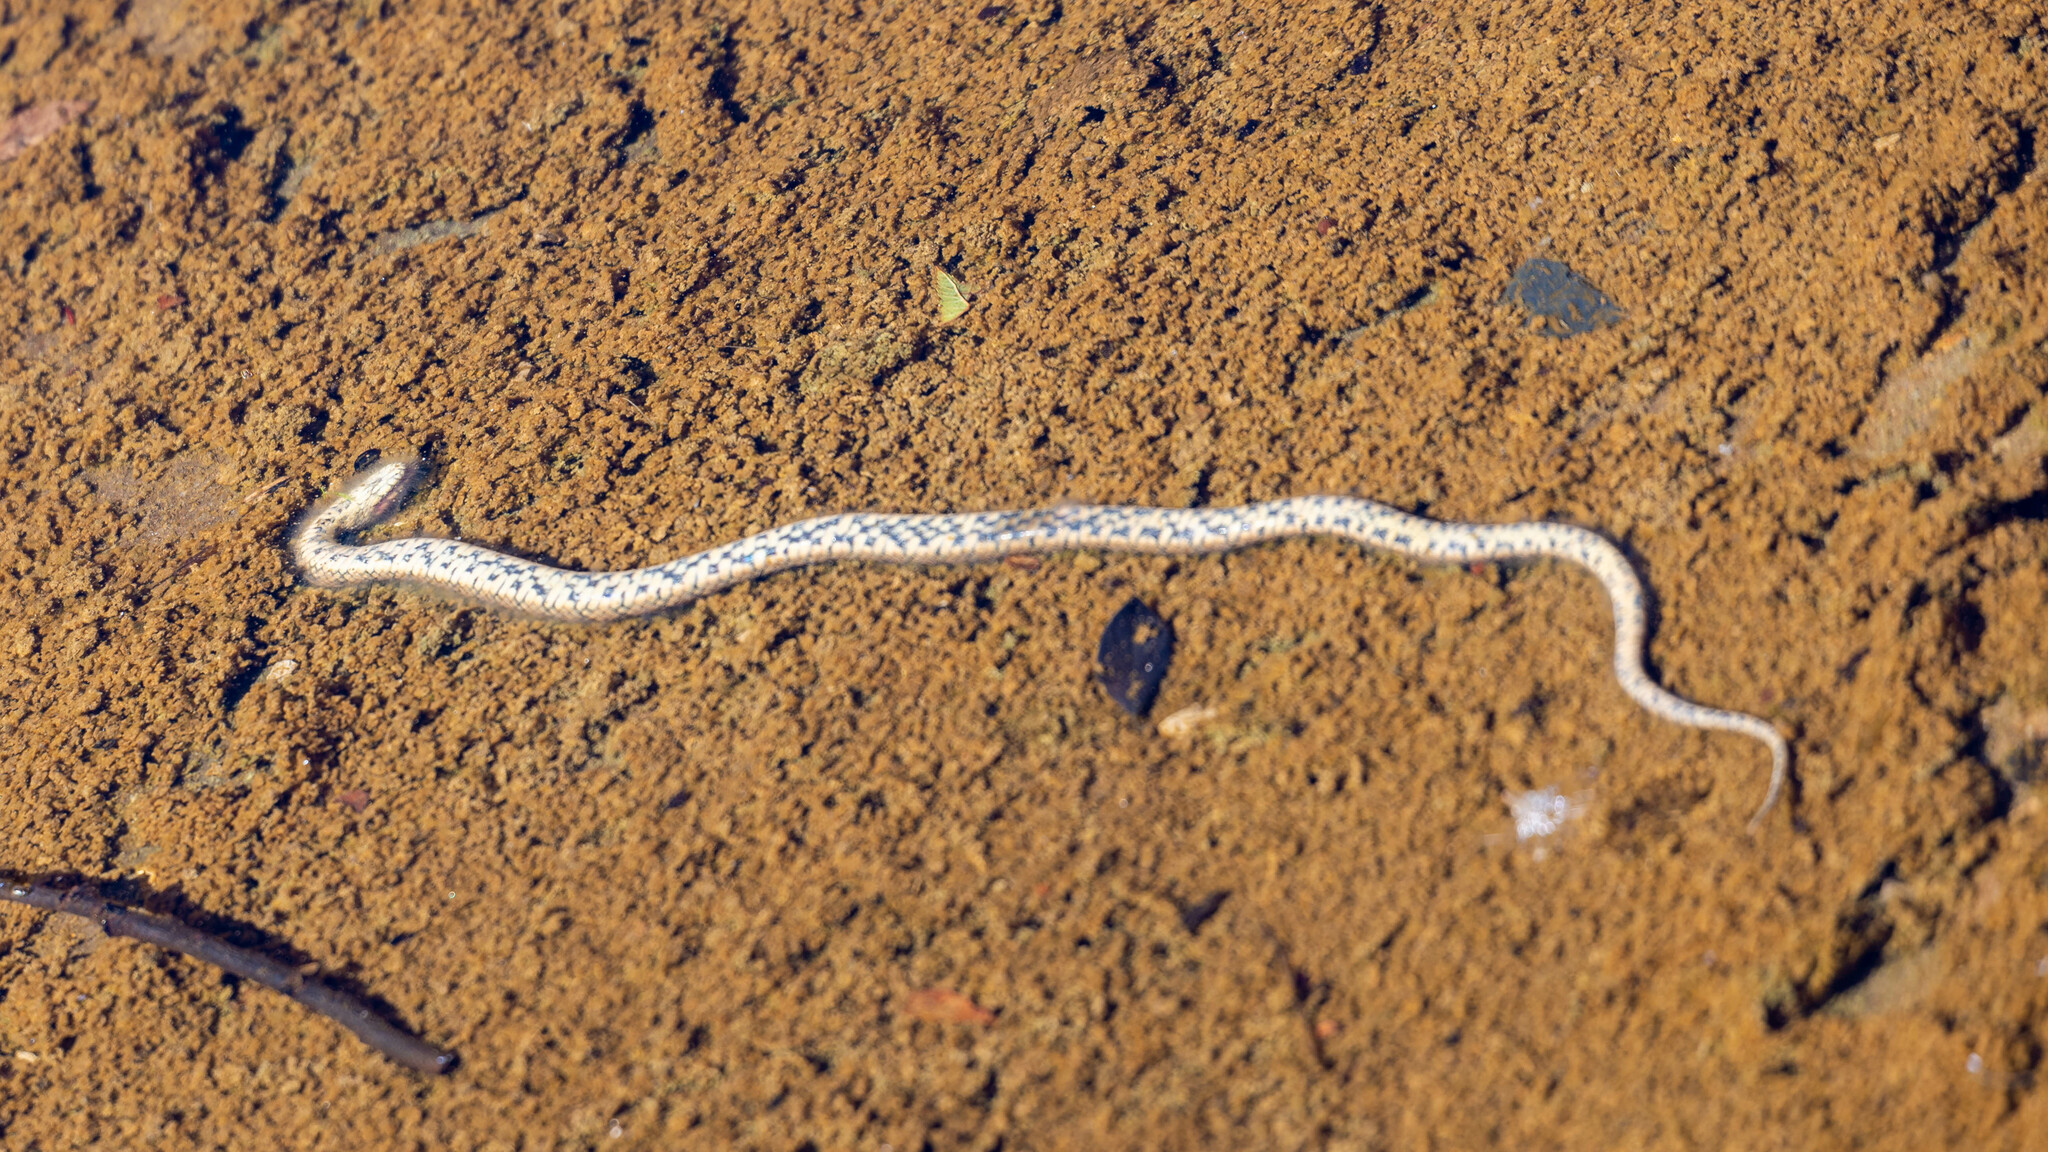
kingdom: Animalia
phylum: Chordata
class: Squamata
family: Colubridae
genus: Natrix
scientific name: Natrix maura
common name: Viperine water snake
